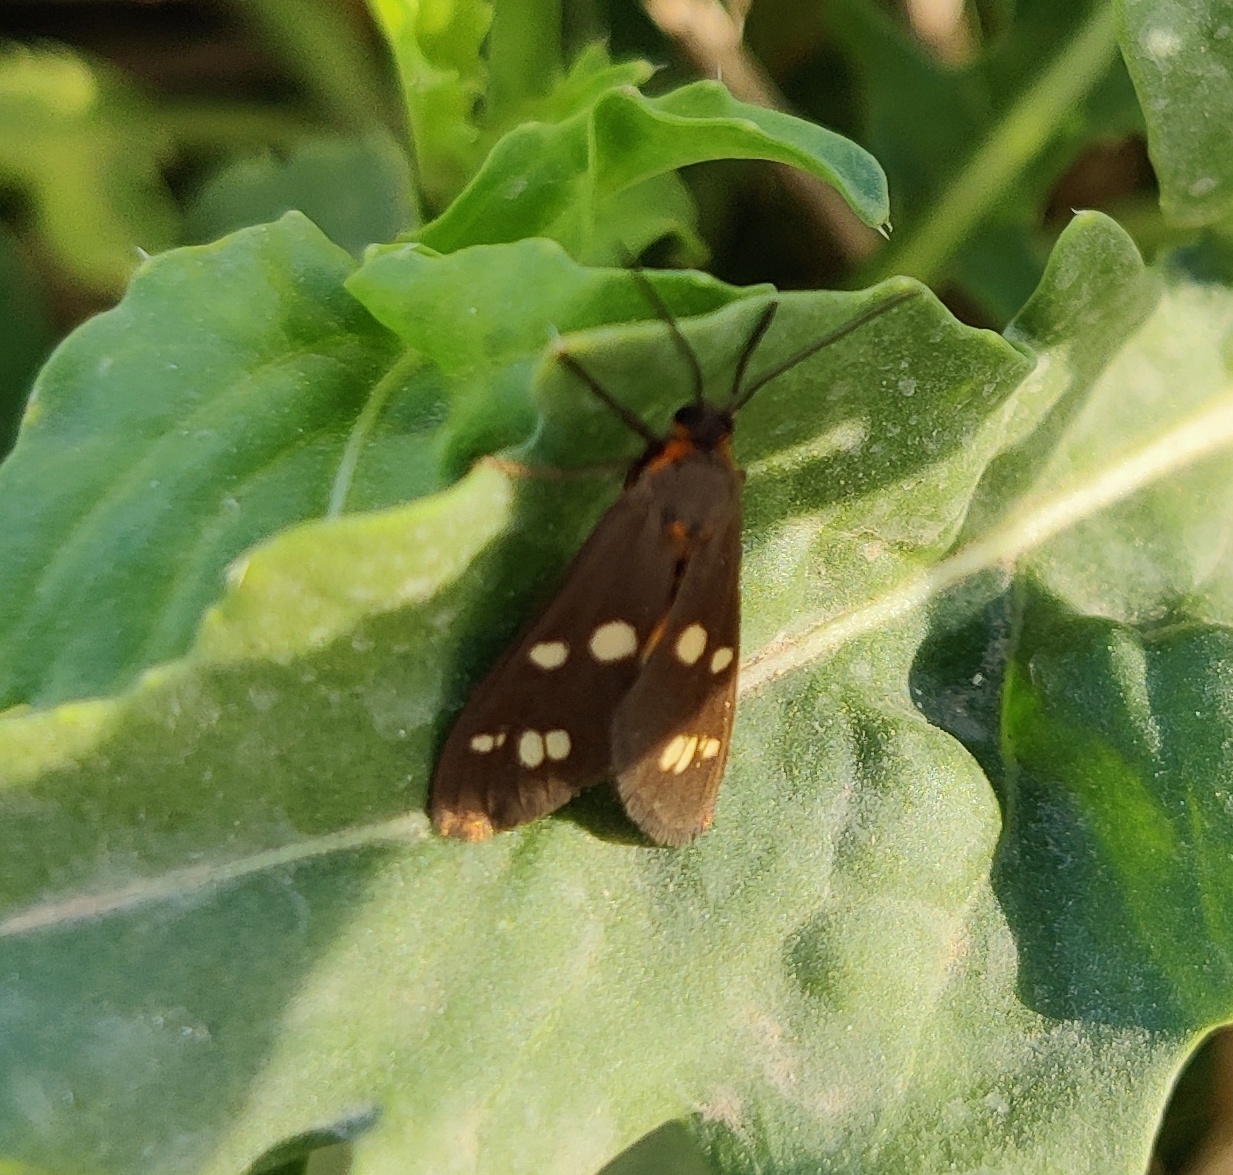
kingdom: Animalia
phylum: Arthropoda
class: Insecta
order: Lepidoptera
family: Erebidae
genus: Dysauxes
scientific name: Dysauxes punctata
